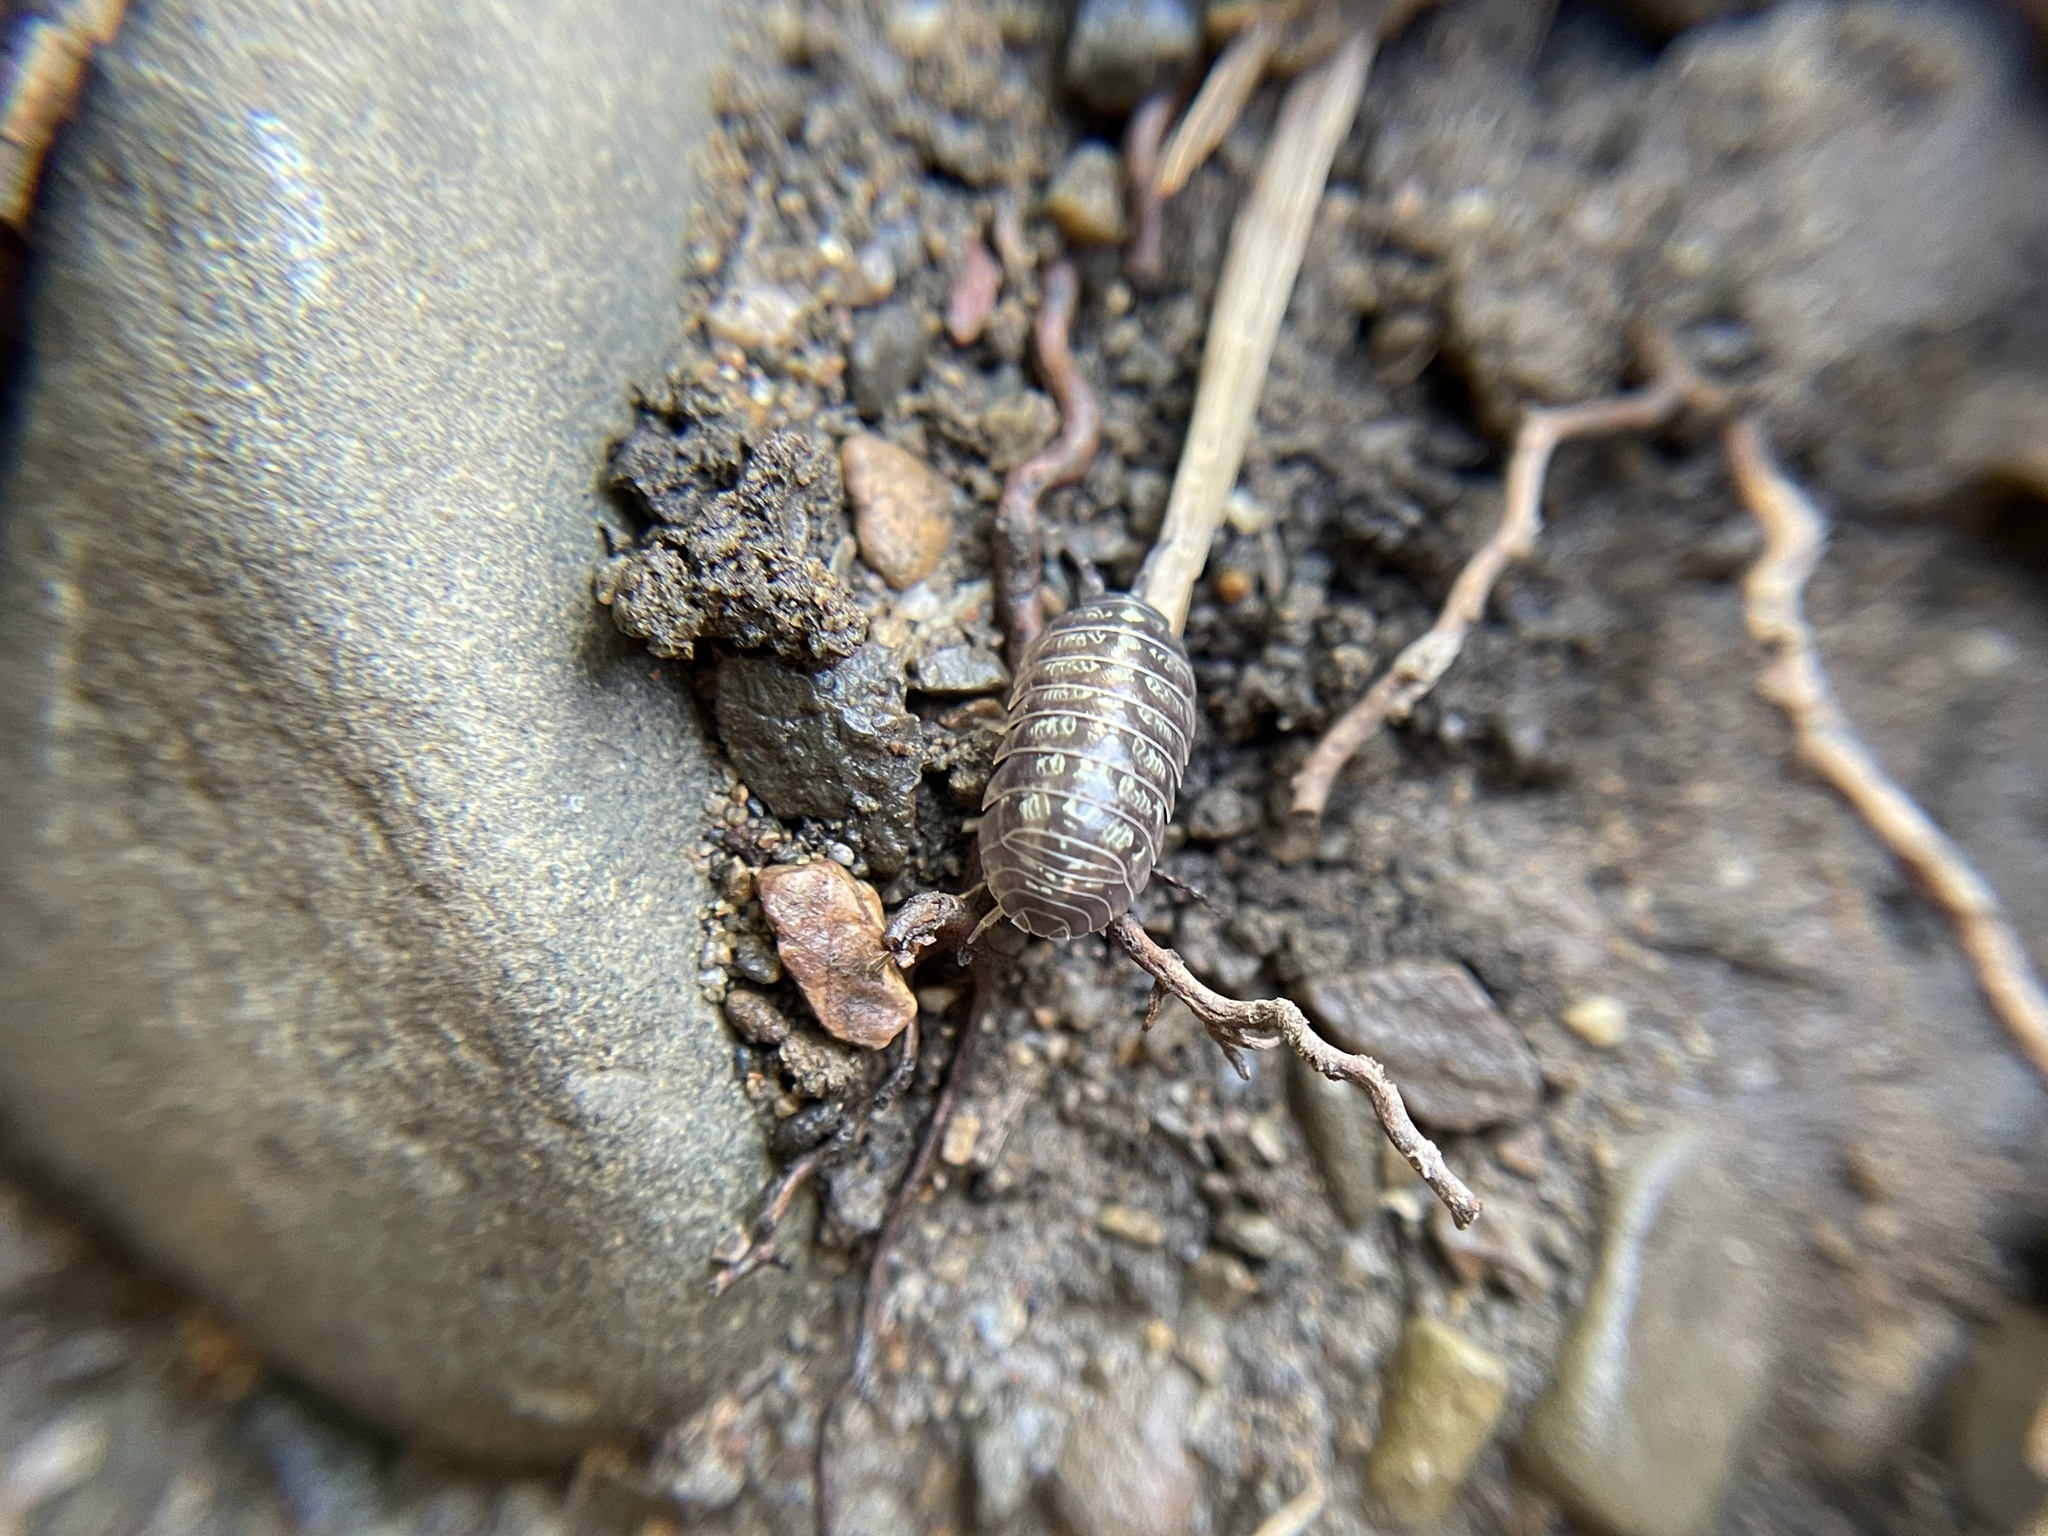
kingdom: Animalia
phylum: Arthropoda
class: Malacostraca
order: Isopoda
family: Armadillidiidae
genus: Armadillidium
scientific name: Armadillidium vulgare
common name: Common pill woodlouse
